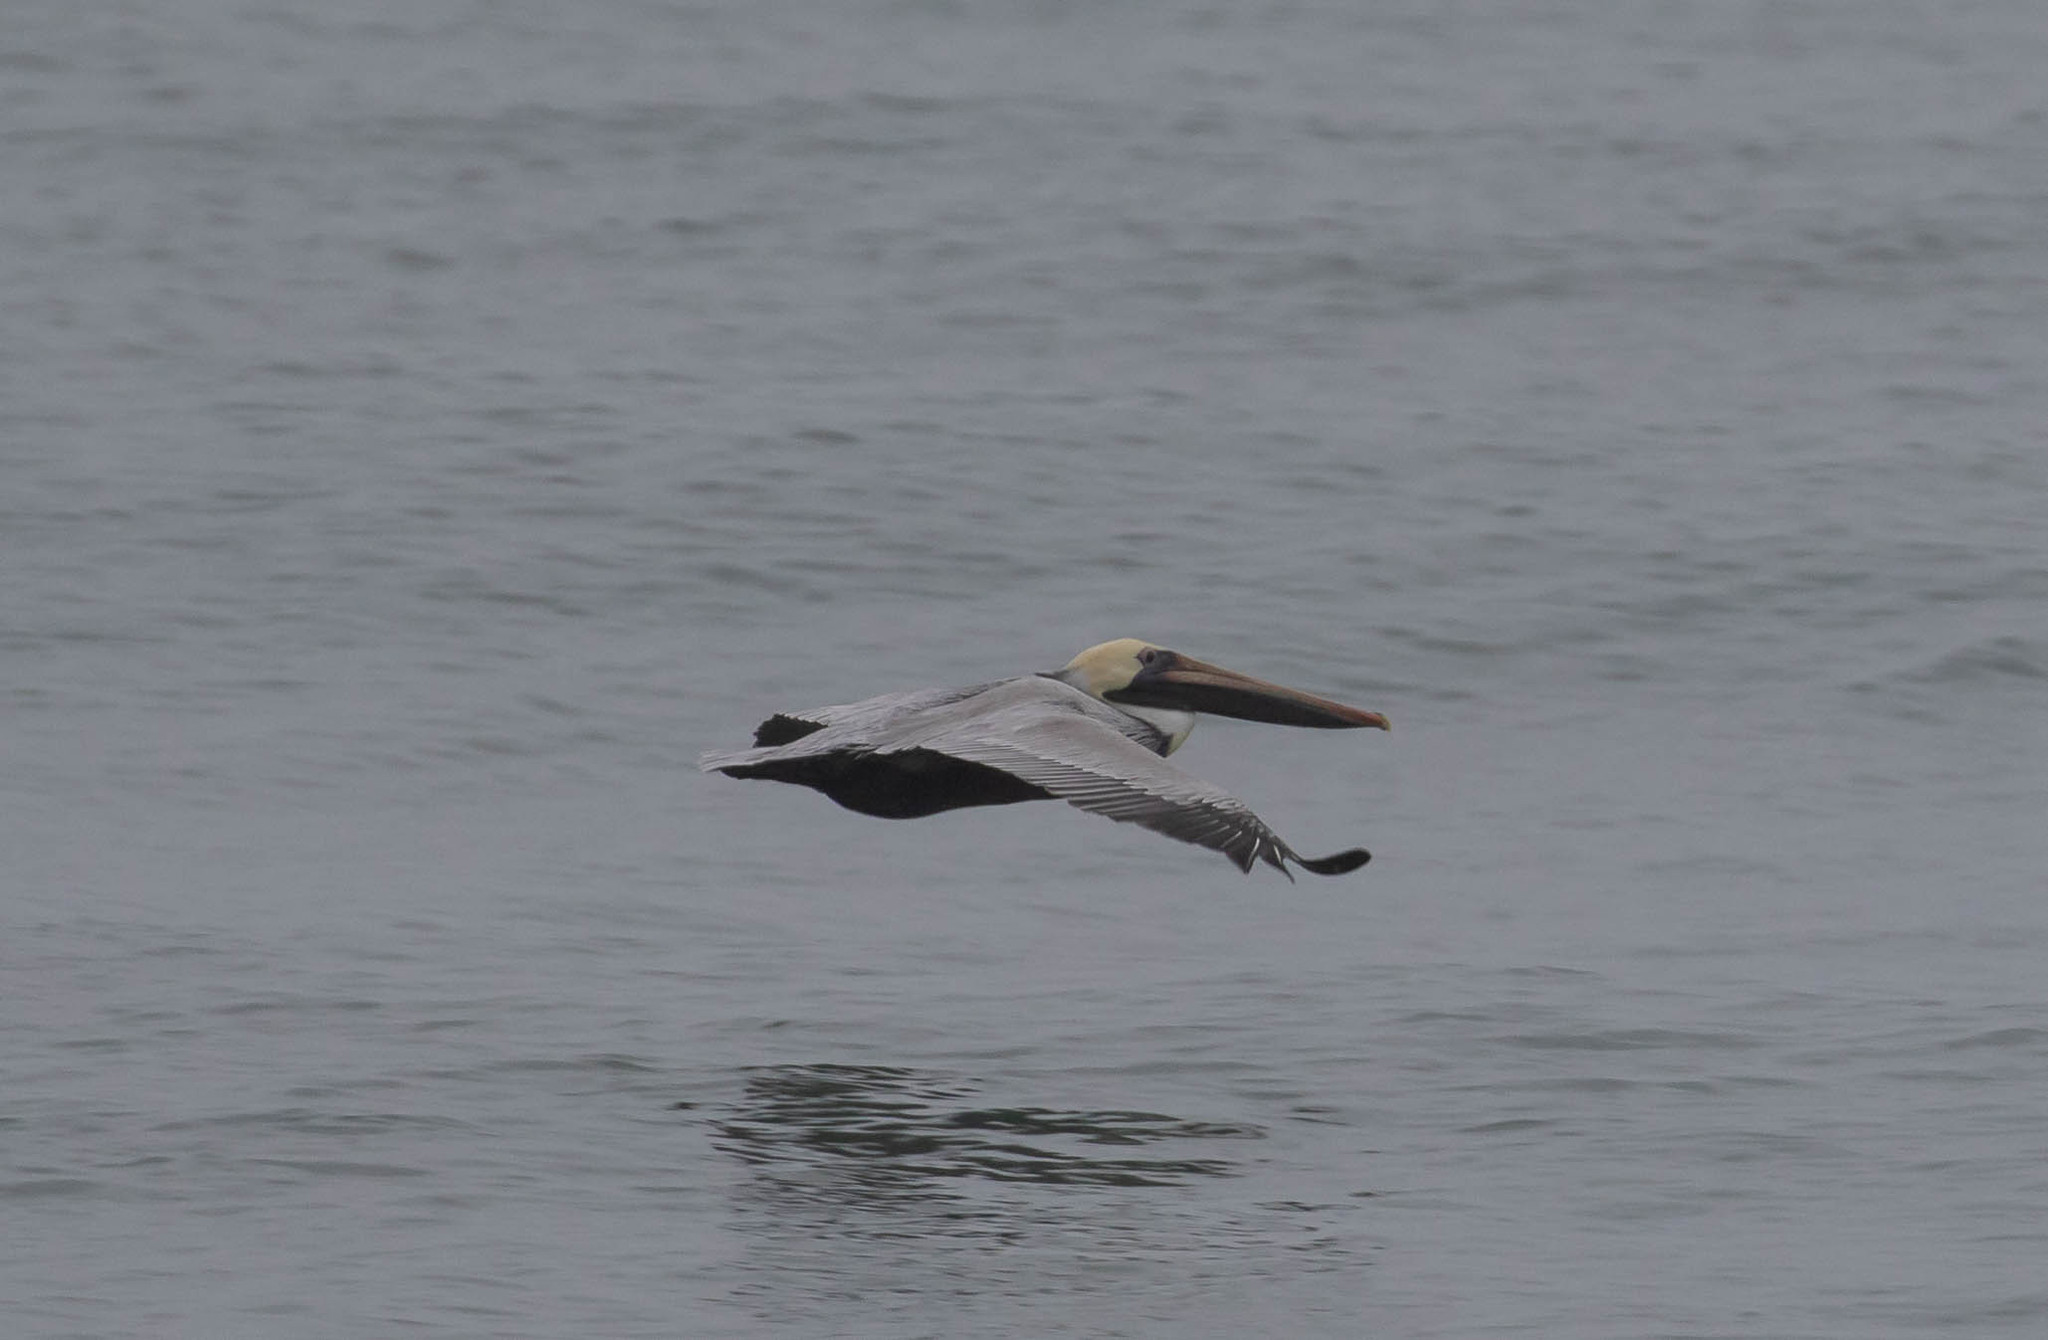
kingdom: Animalia
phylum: Chordata
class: Aves
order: Pelecaniformes
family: Pelecanidae
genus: Pelecanus
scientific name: Pelecanus occidentalis
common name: Brown pelican
